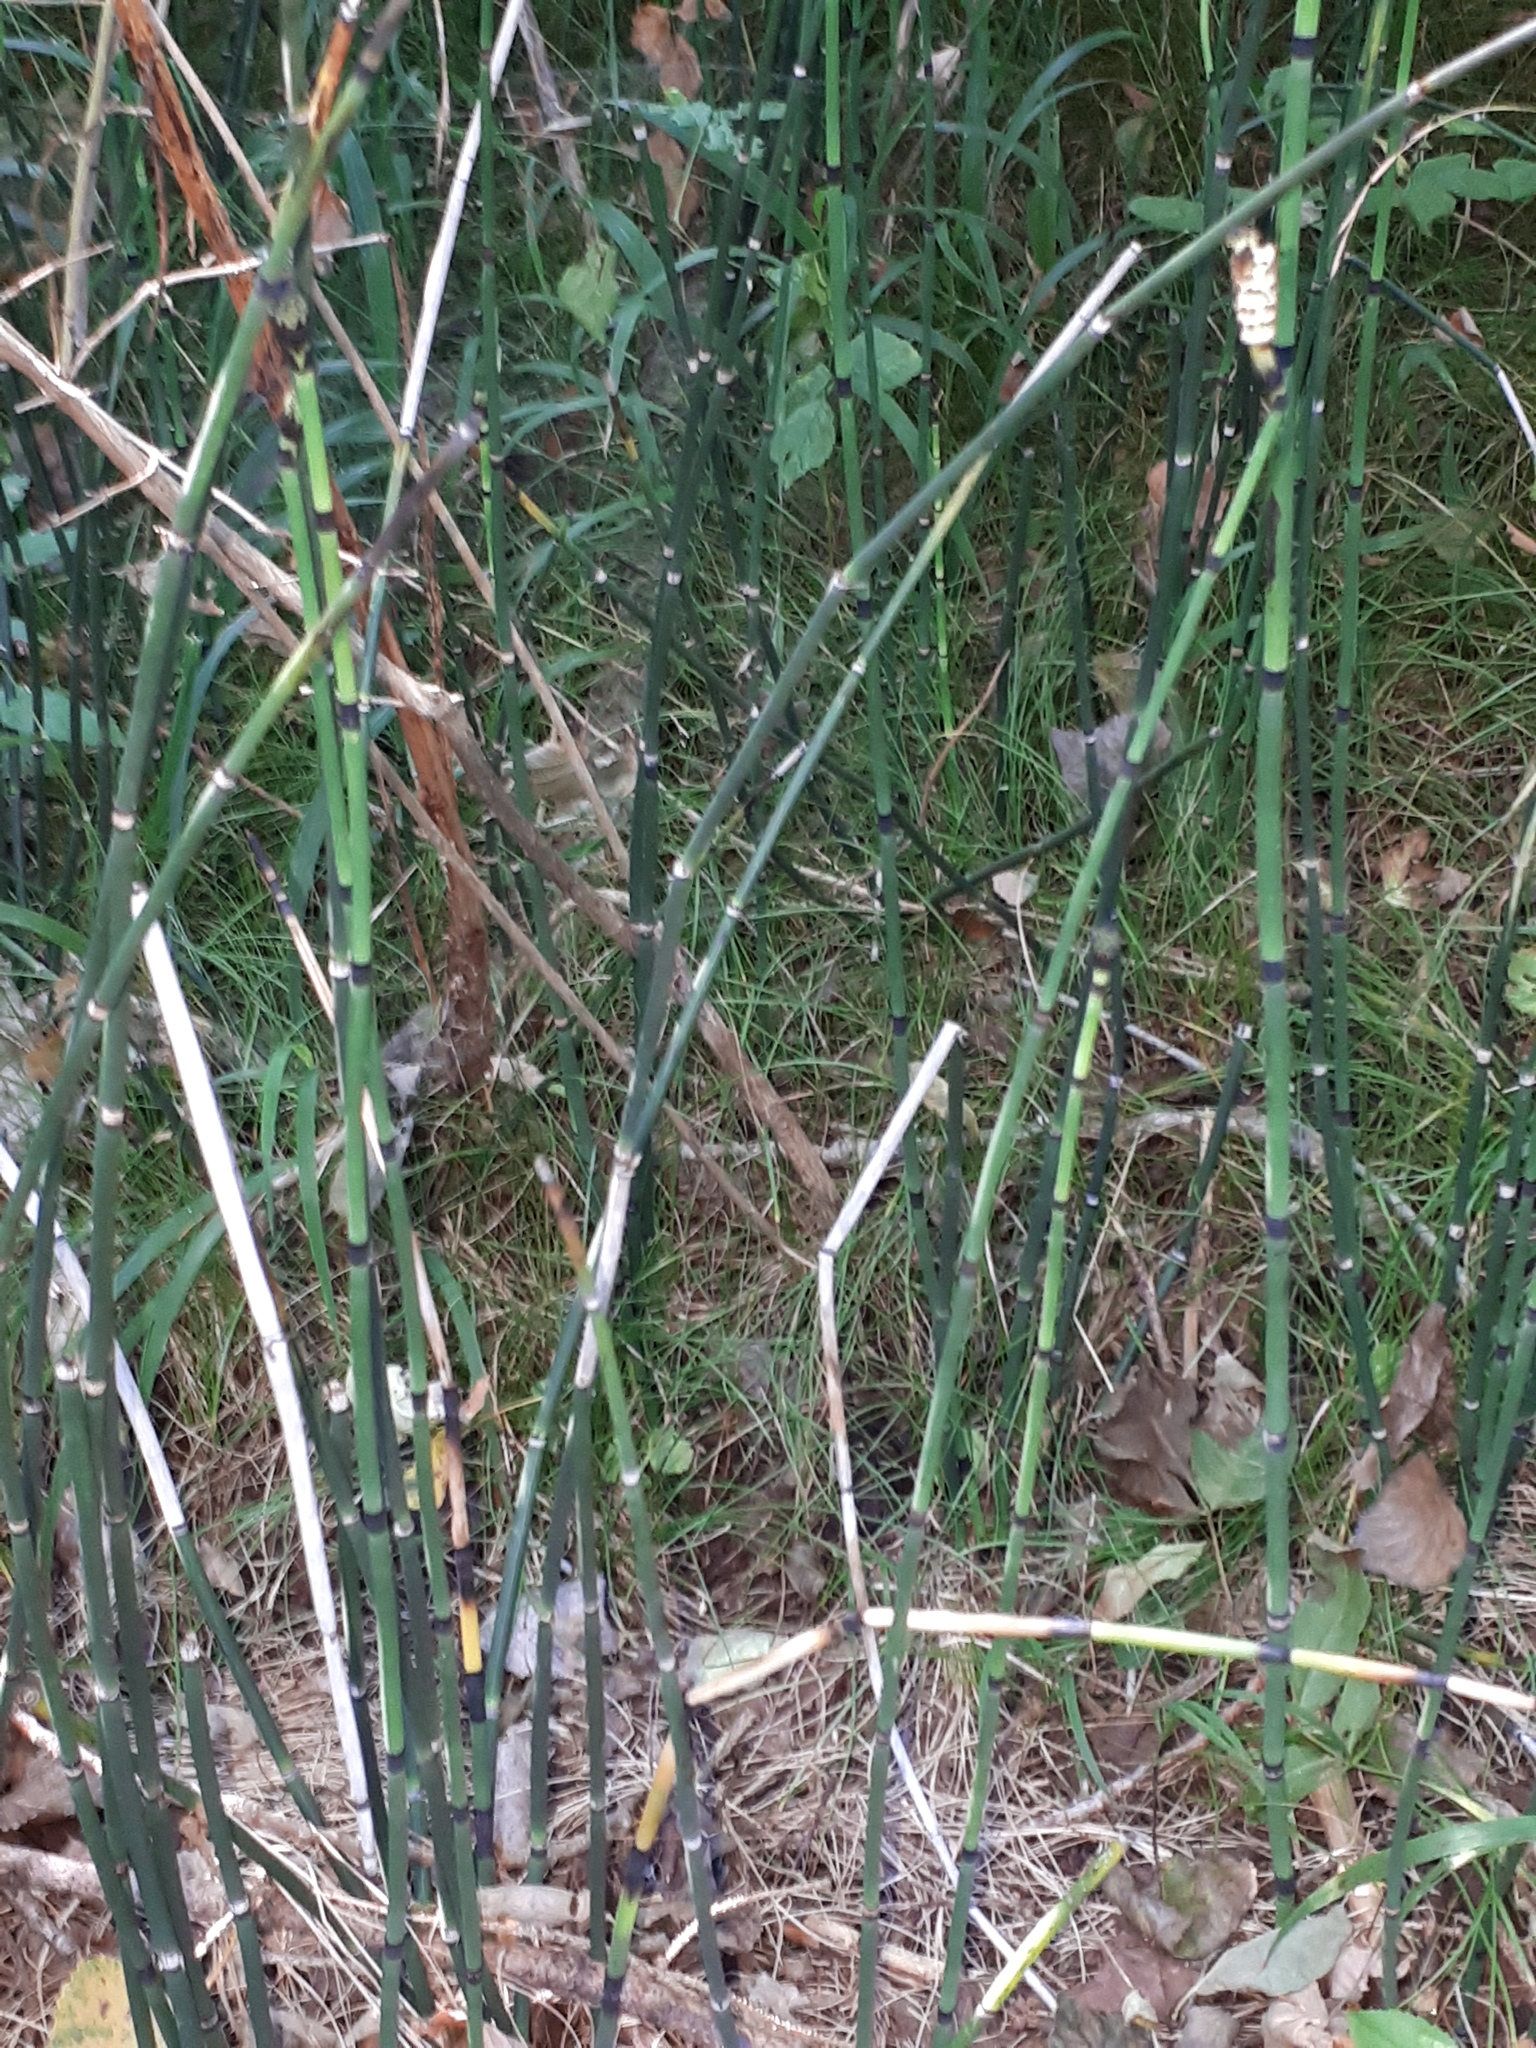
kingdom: Plantae
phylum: Tracheophyta
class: Polypodiopsida
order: Equisetales
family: Equisetaceae
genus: Equisetum
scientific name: Equisetum hyemale
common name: Rough horsetail
